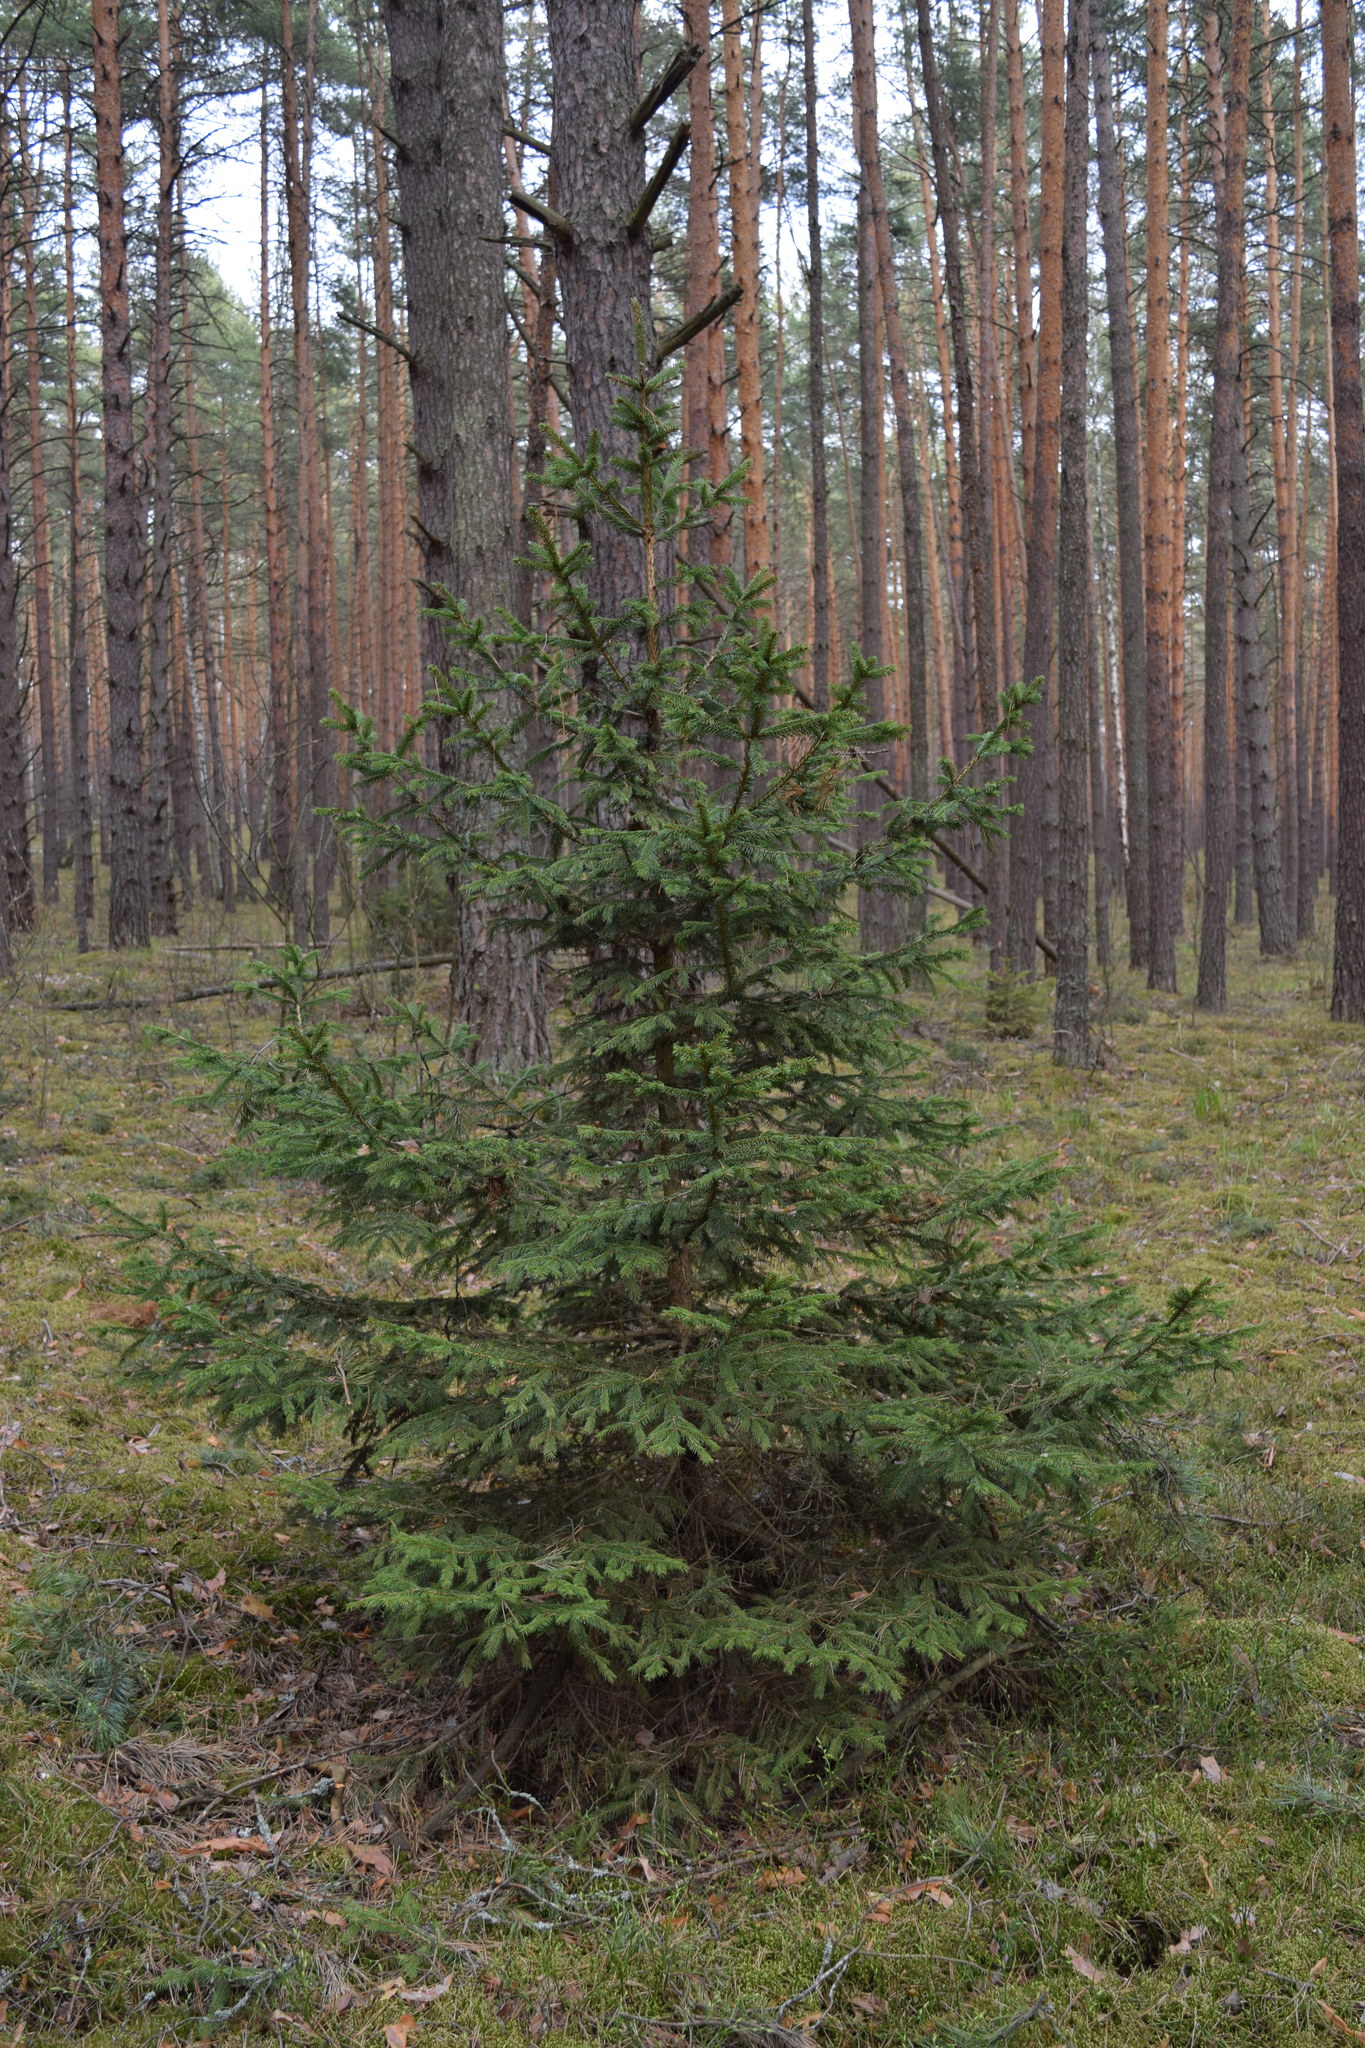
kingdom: Plantae
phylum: Tracheophyta
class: Pinopsida
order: Pinales
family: Pinaceae
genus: Picea
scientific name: Picea abies
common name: Norway spruce
